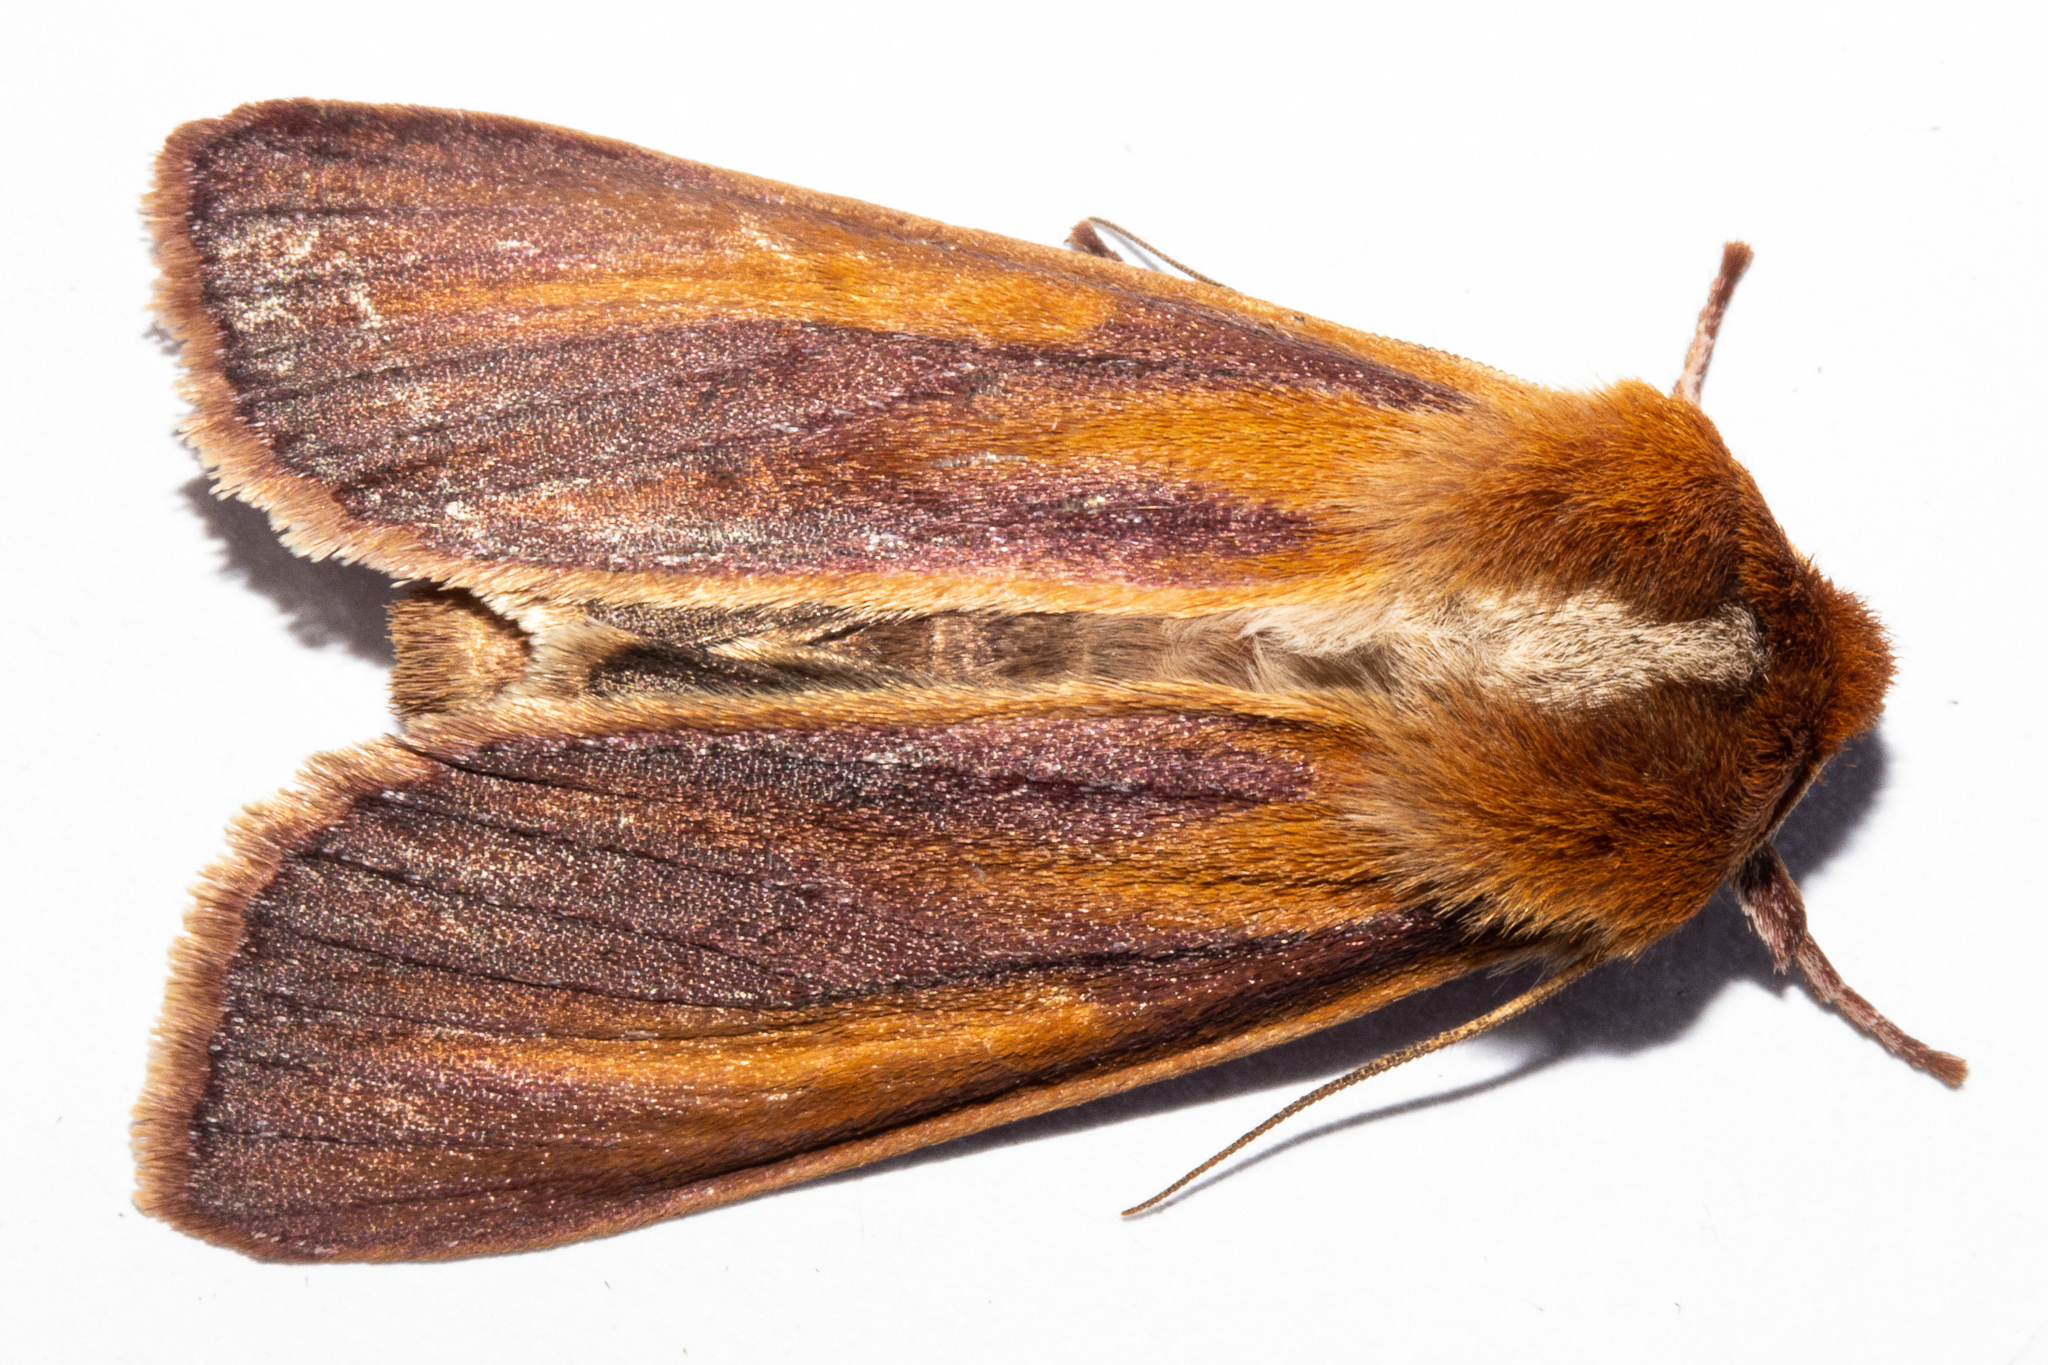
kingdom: Animalia
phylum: Arthropoda
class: Insecta
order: Lepidoptera
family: Noctuidae
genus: Ichneutica
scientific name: Ichneutica
